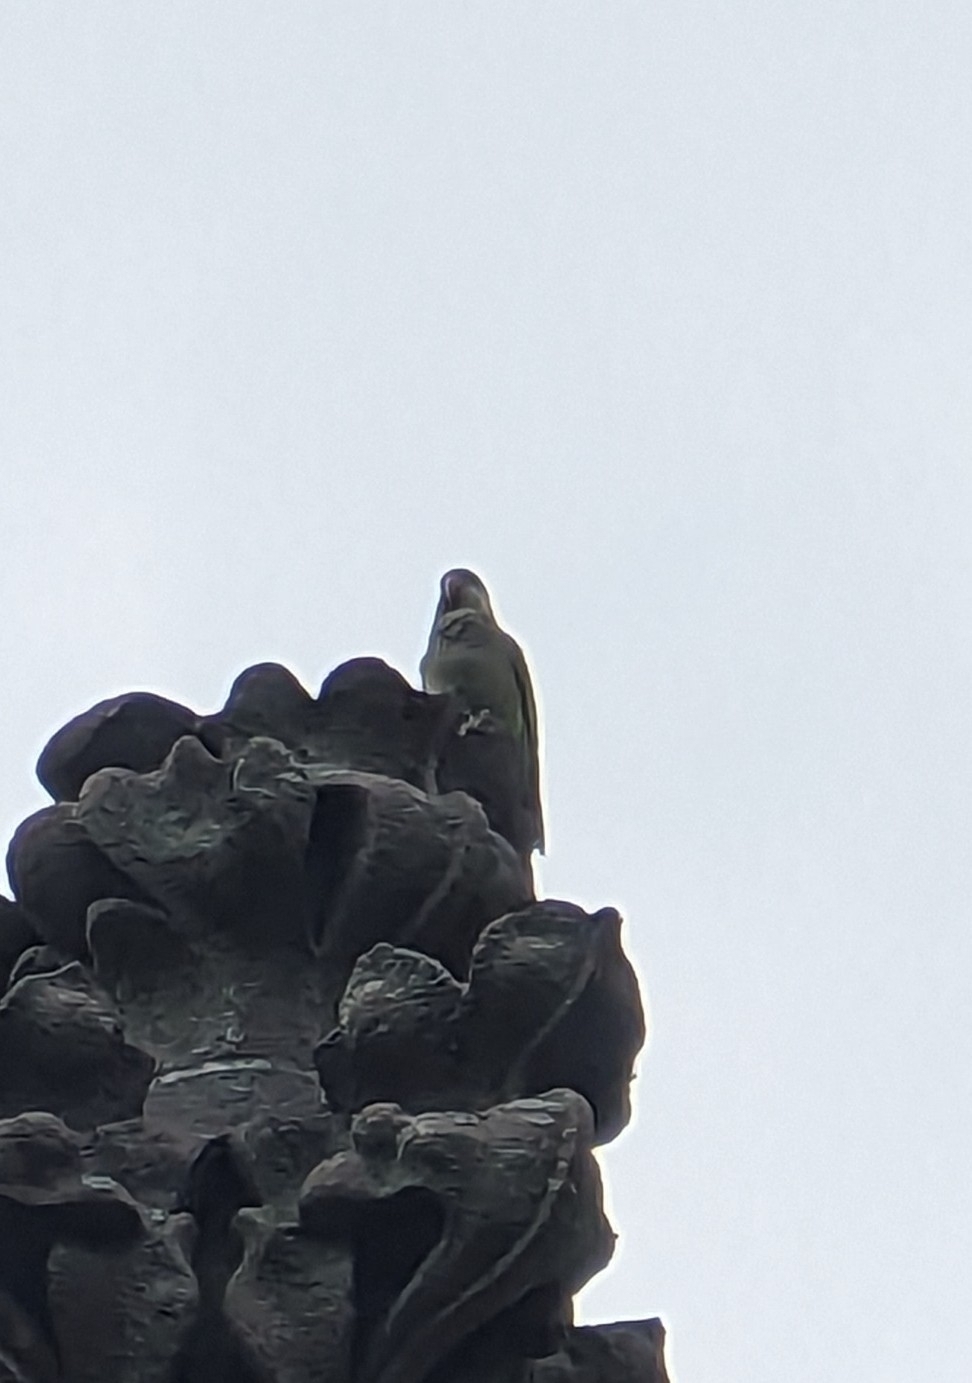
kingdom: Animalia
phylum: Chordata
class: Aves
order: Psittaciformes
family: Psittacidae
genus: Myiopsitta
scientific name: Myiopsitta monachus
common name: Monk parakeet
